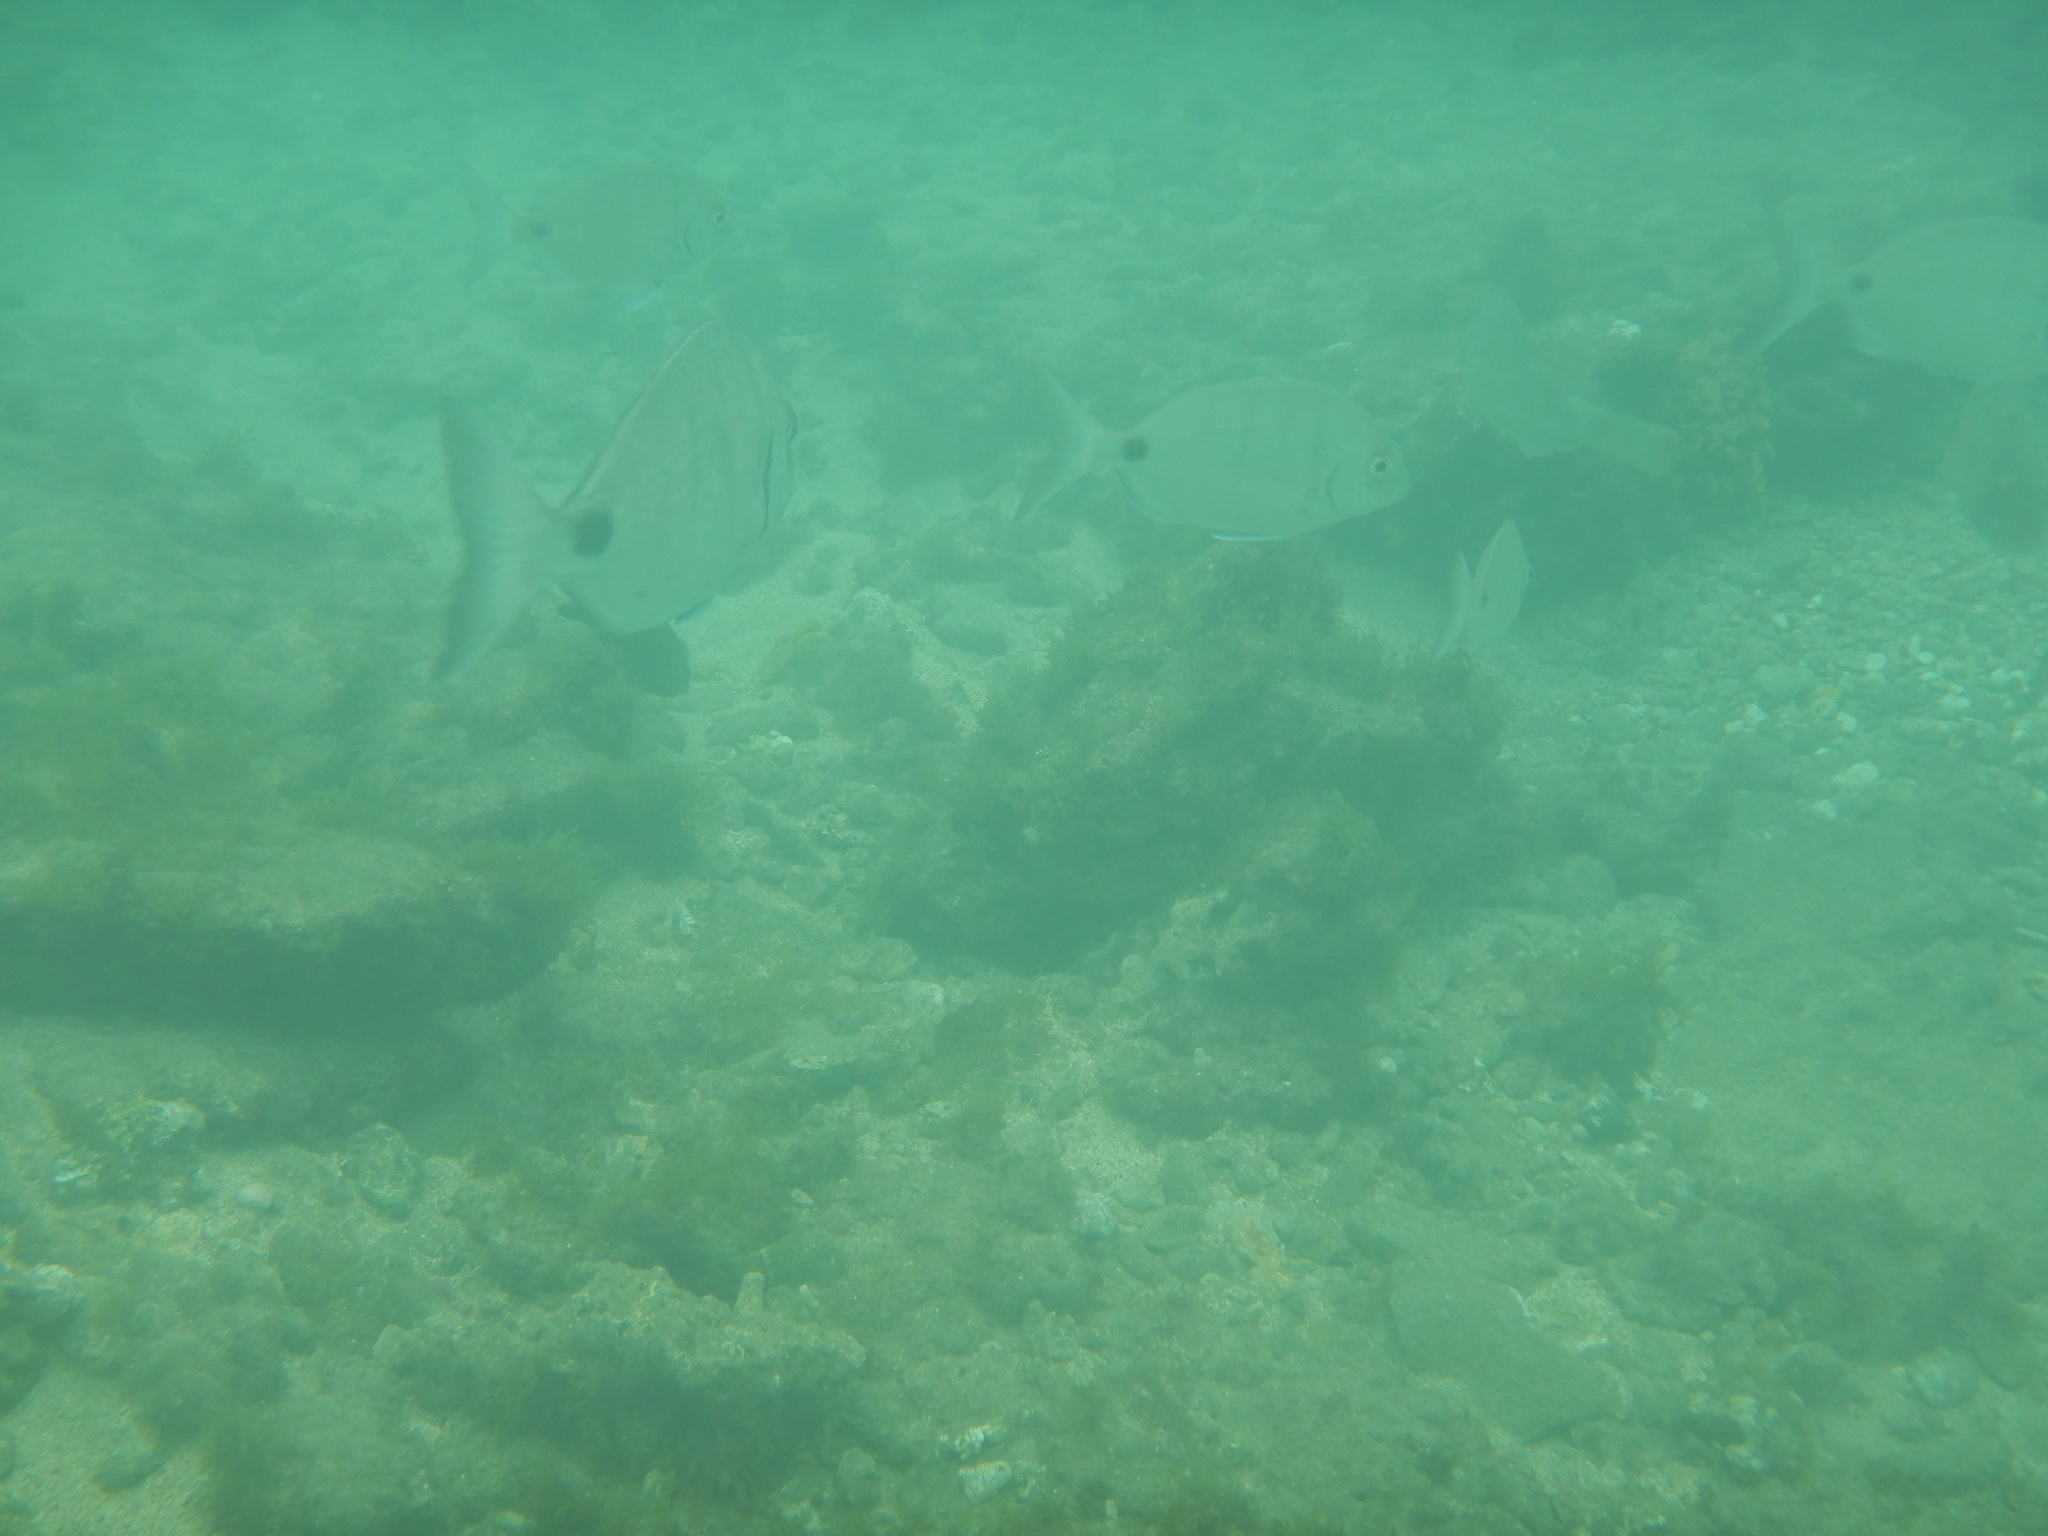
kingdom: Animalia
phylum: Chordata
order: Perciformes
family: Sparidae
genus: Diplodus
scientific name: Diplodus cadenati
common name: Moroccan white seabream
